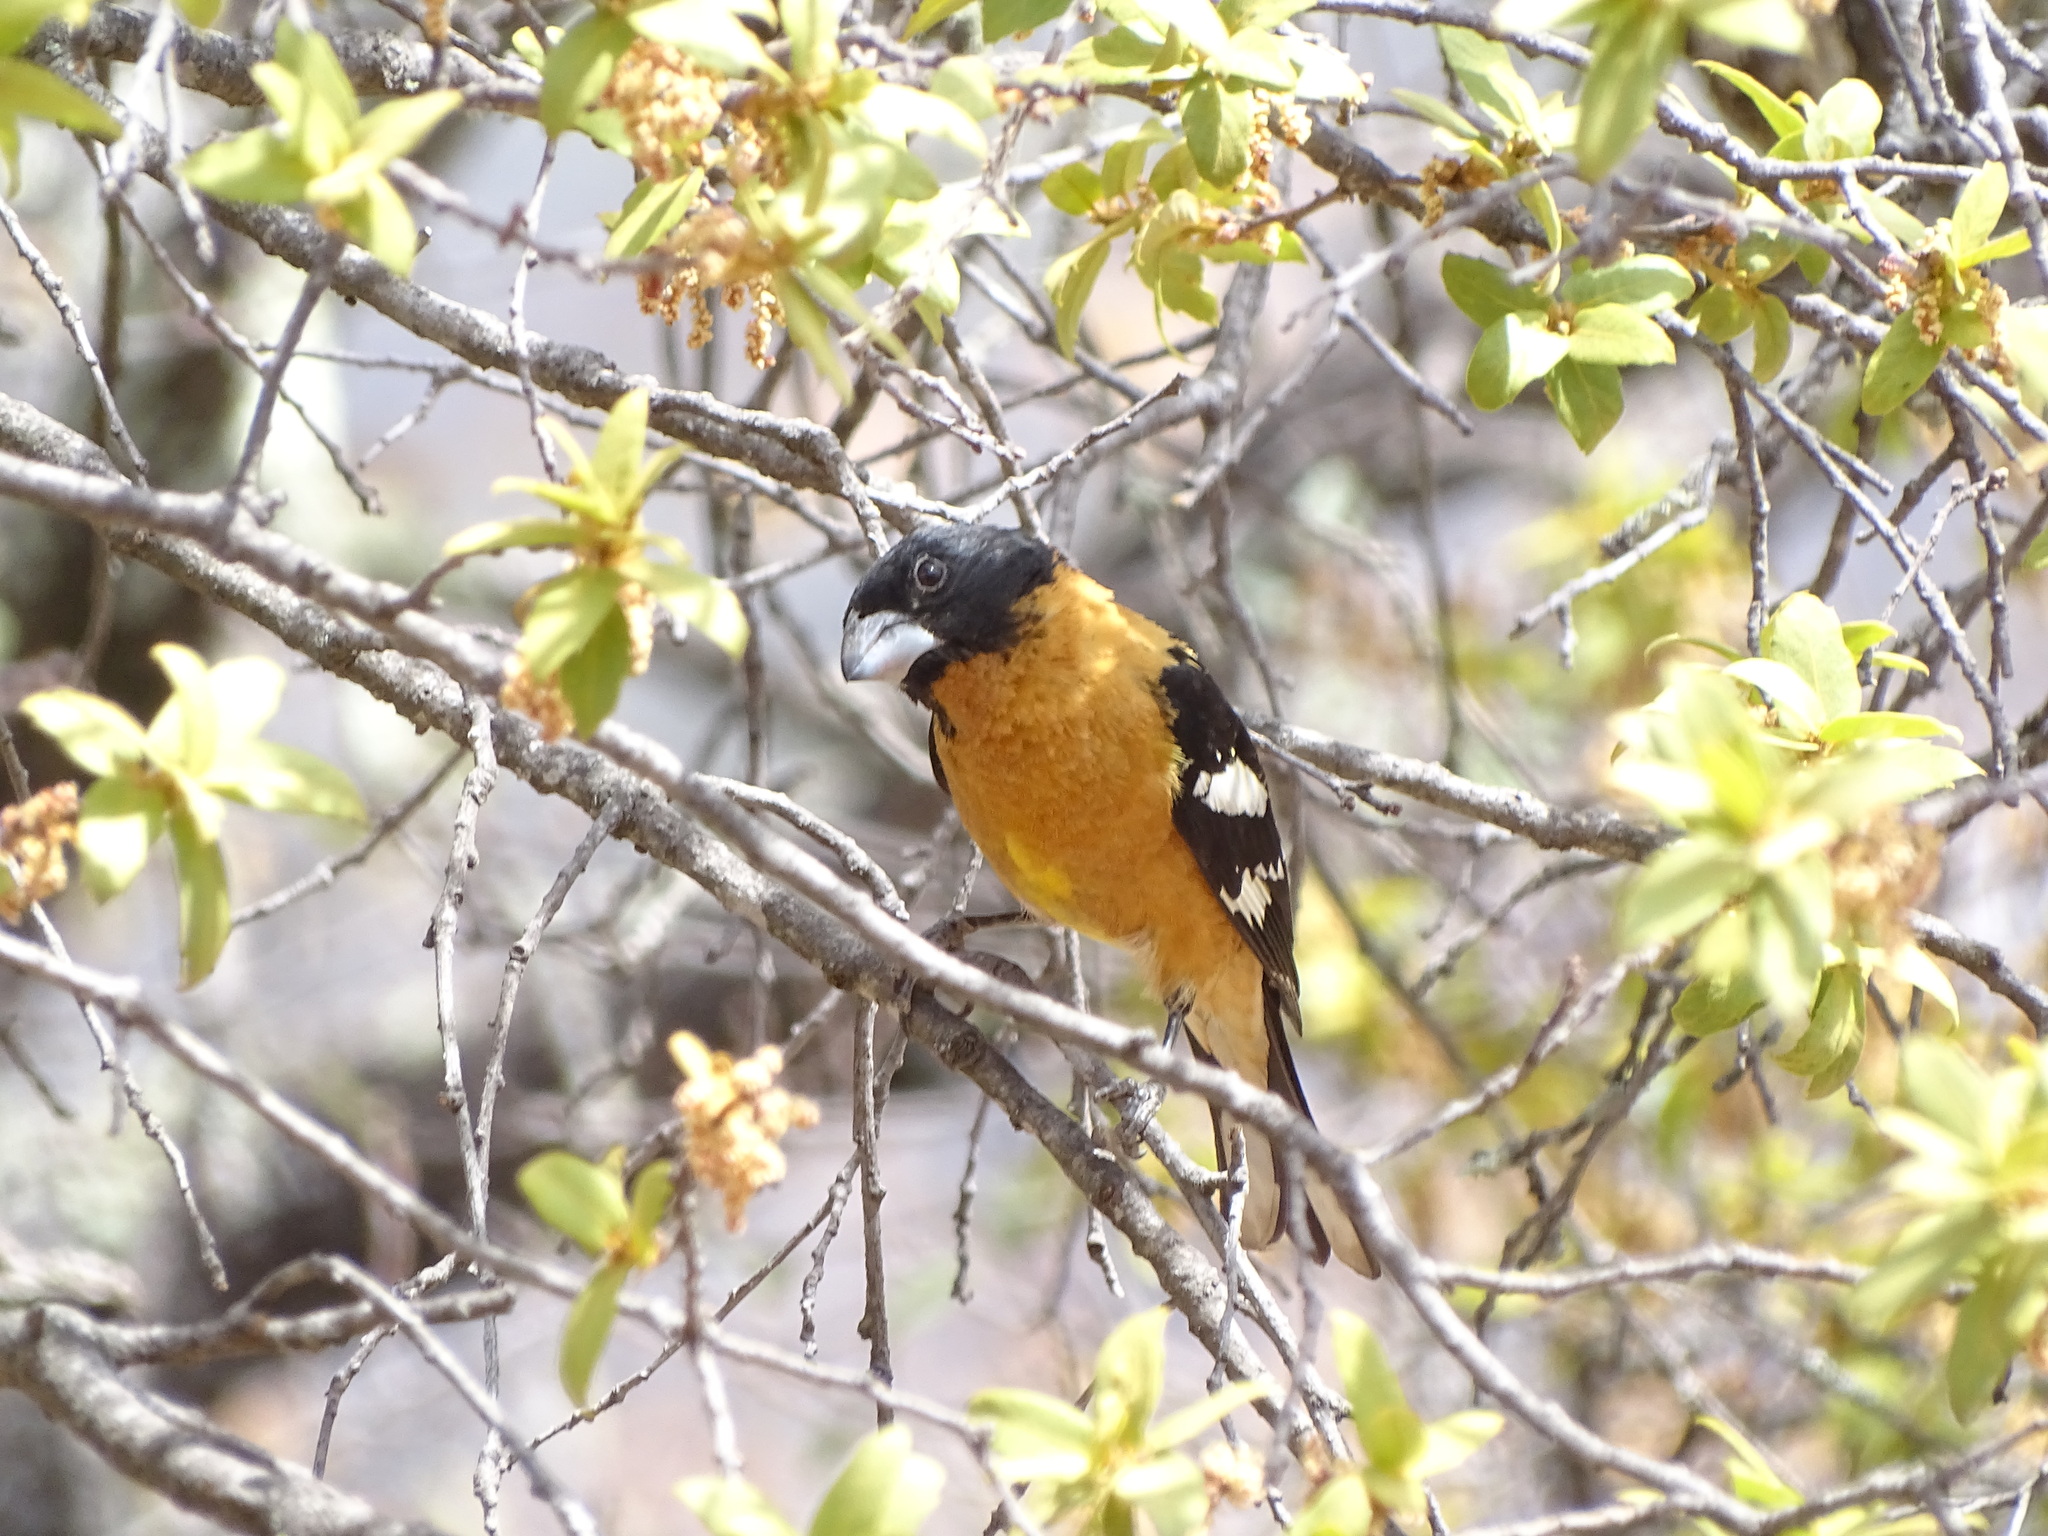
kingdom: Animalia
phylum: Chordata
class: Aves
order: Passeriformes
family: Cardinalidae
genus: Pheucticus
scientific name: Pheucticus melanocephalus
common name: Black-headed grosbeak
